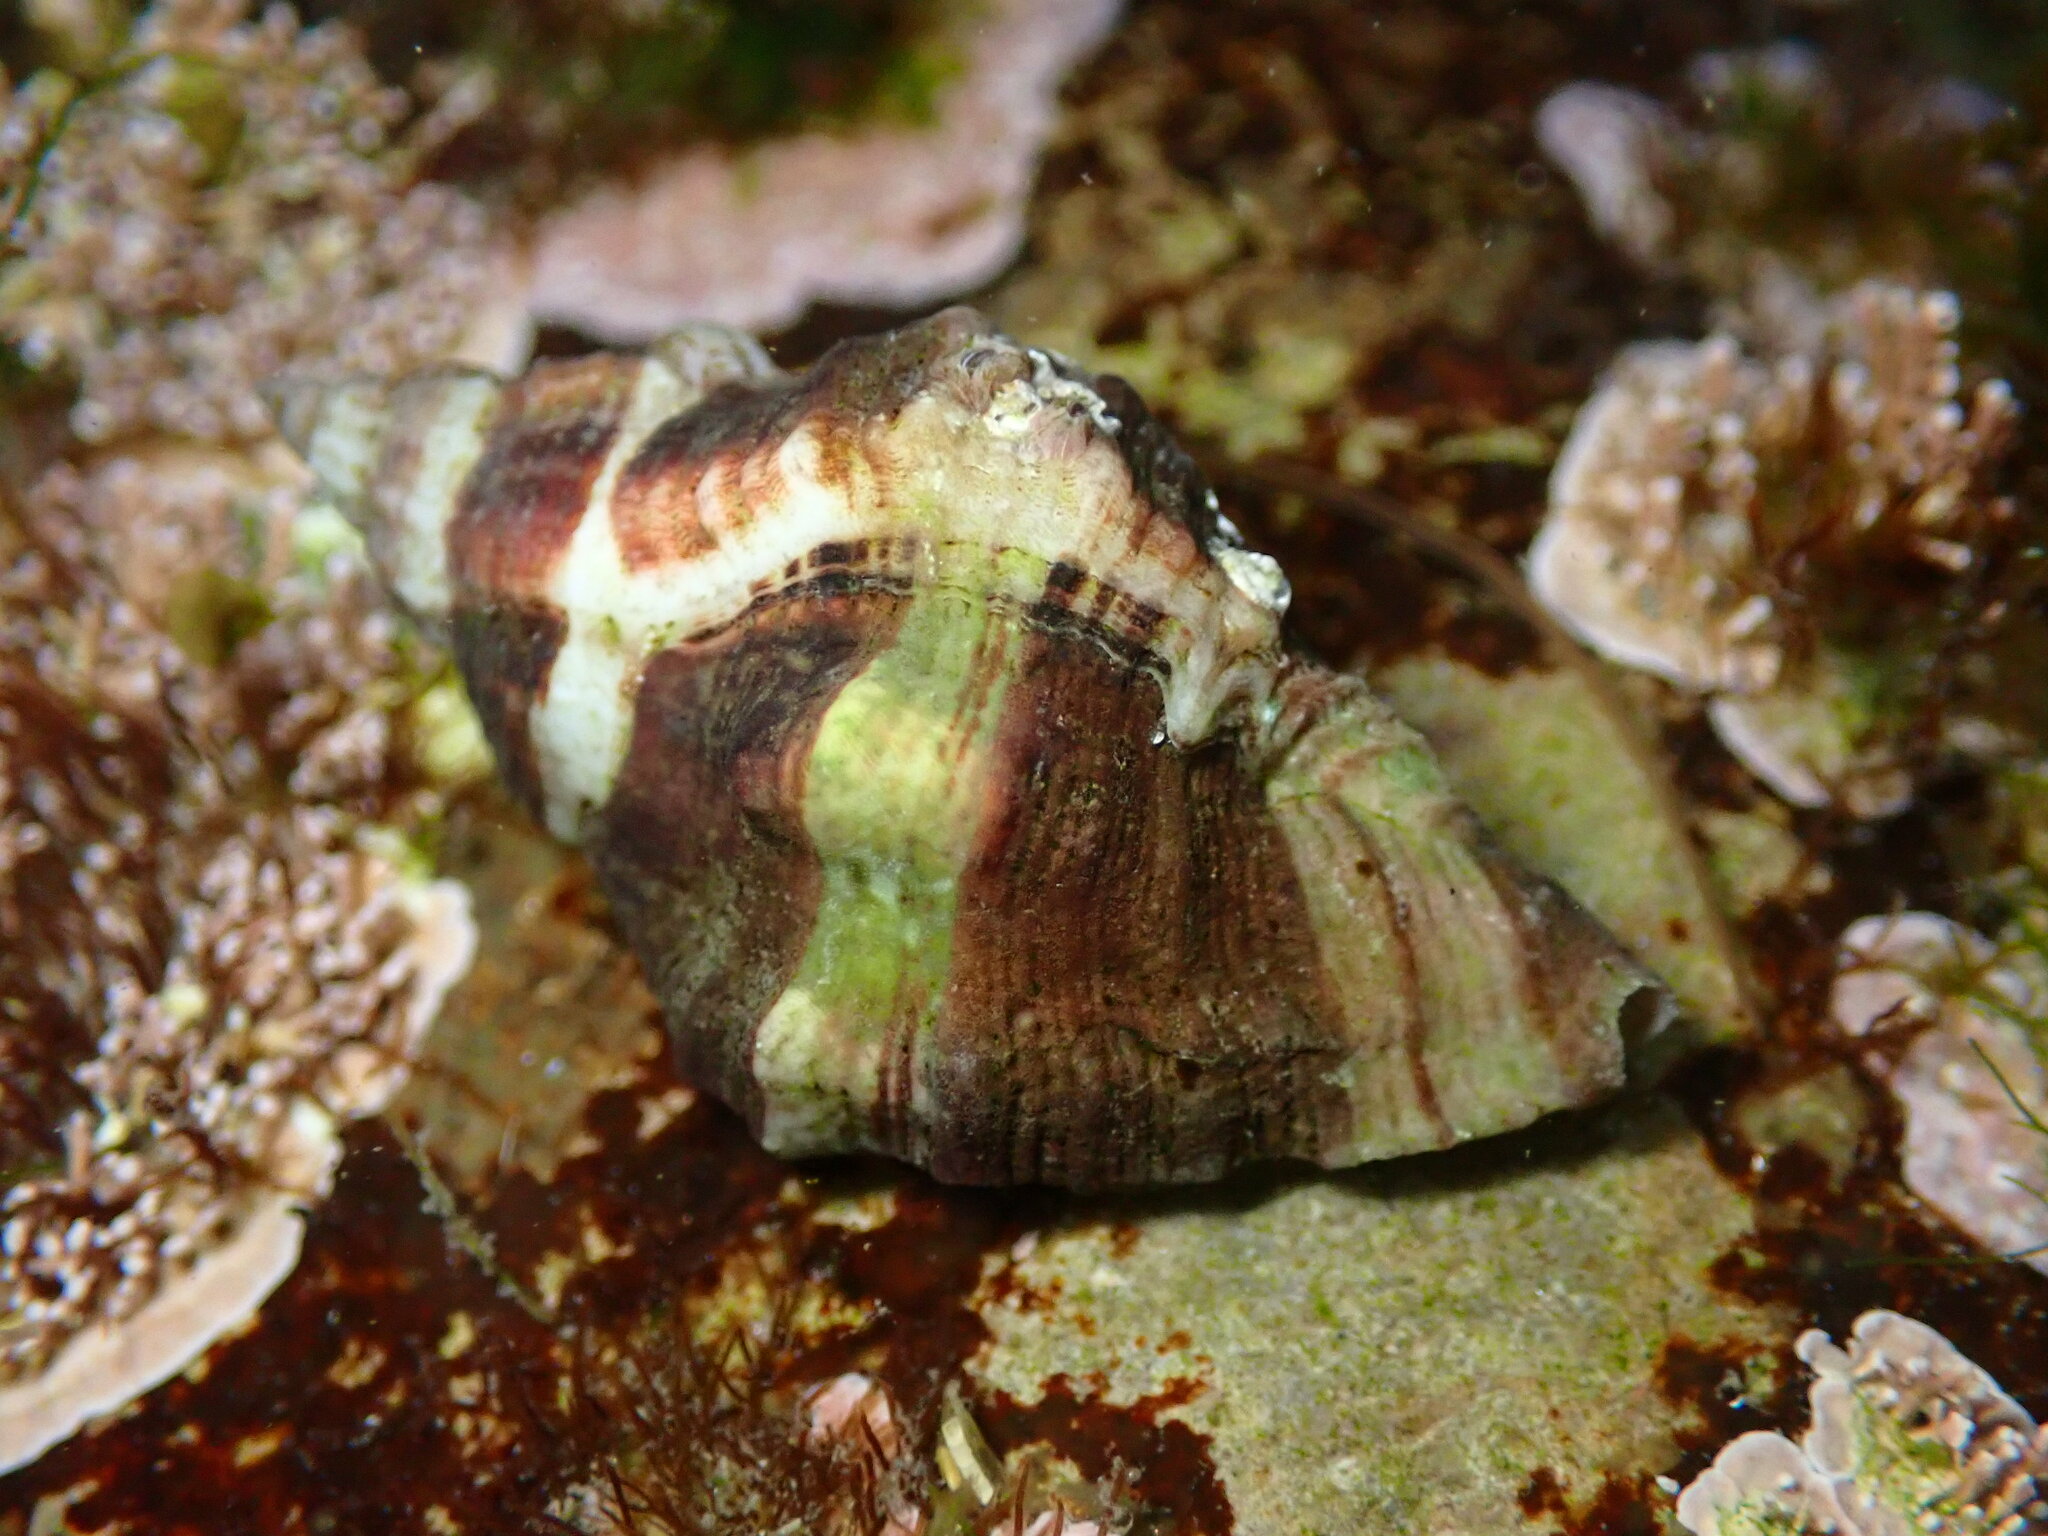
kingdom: Animalia
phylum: Mollusca
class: Gastropoda
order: Neogastropoda
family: Muricidae
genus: Ceratostoma
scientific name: Ceratostoma nuttalli
